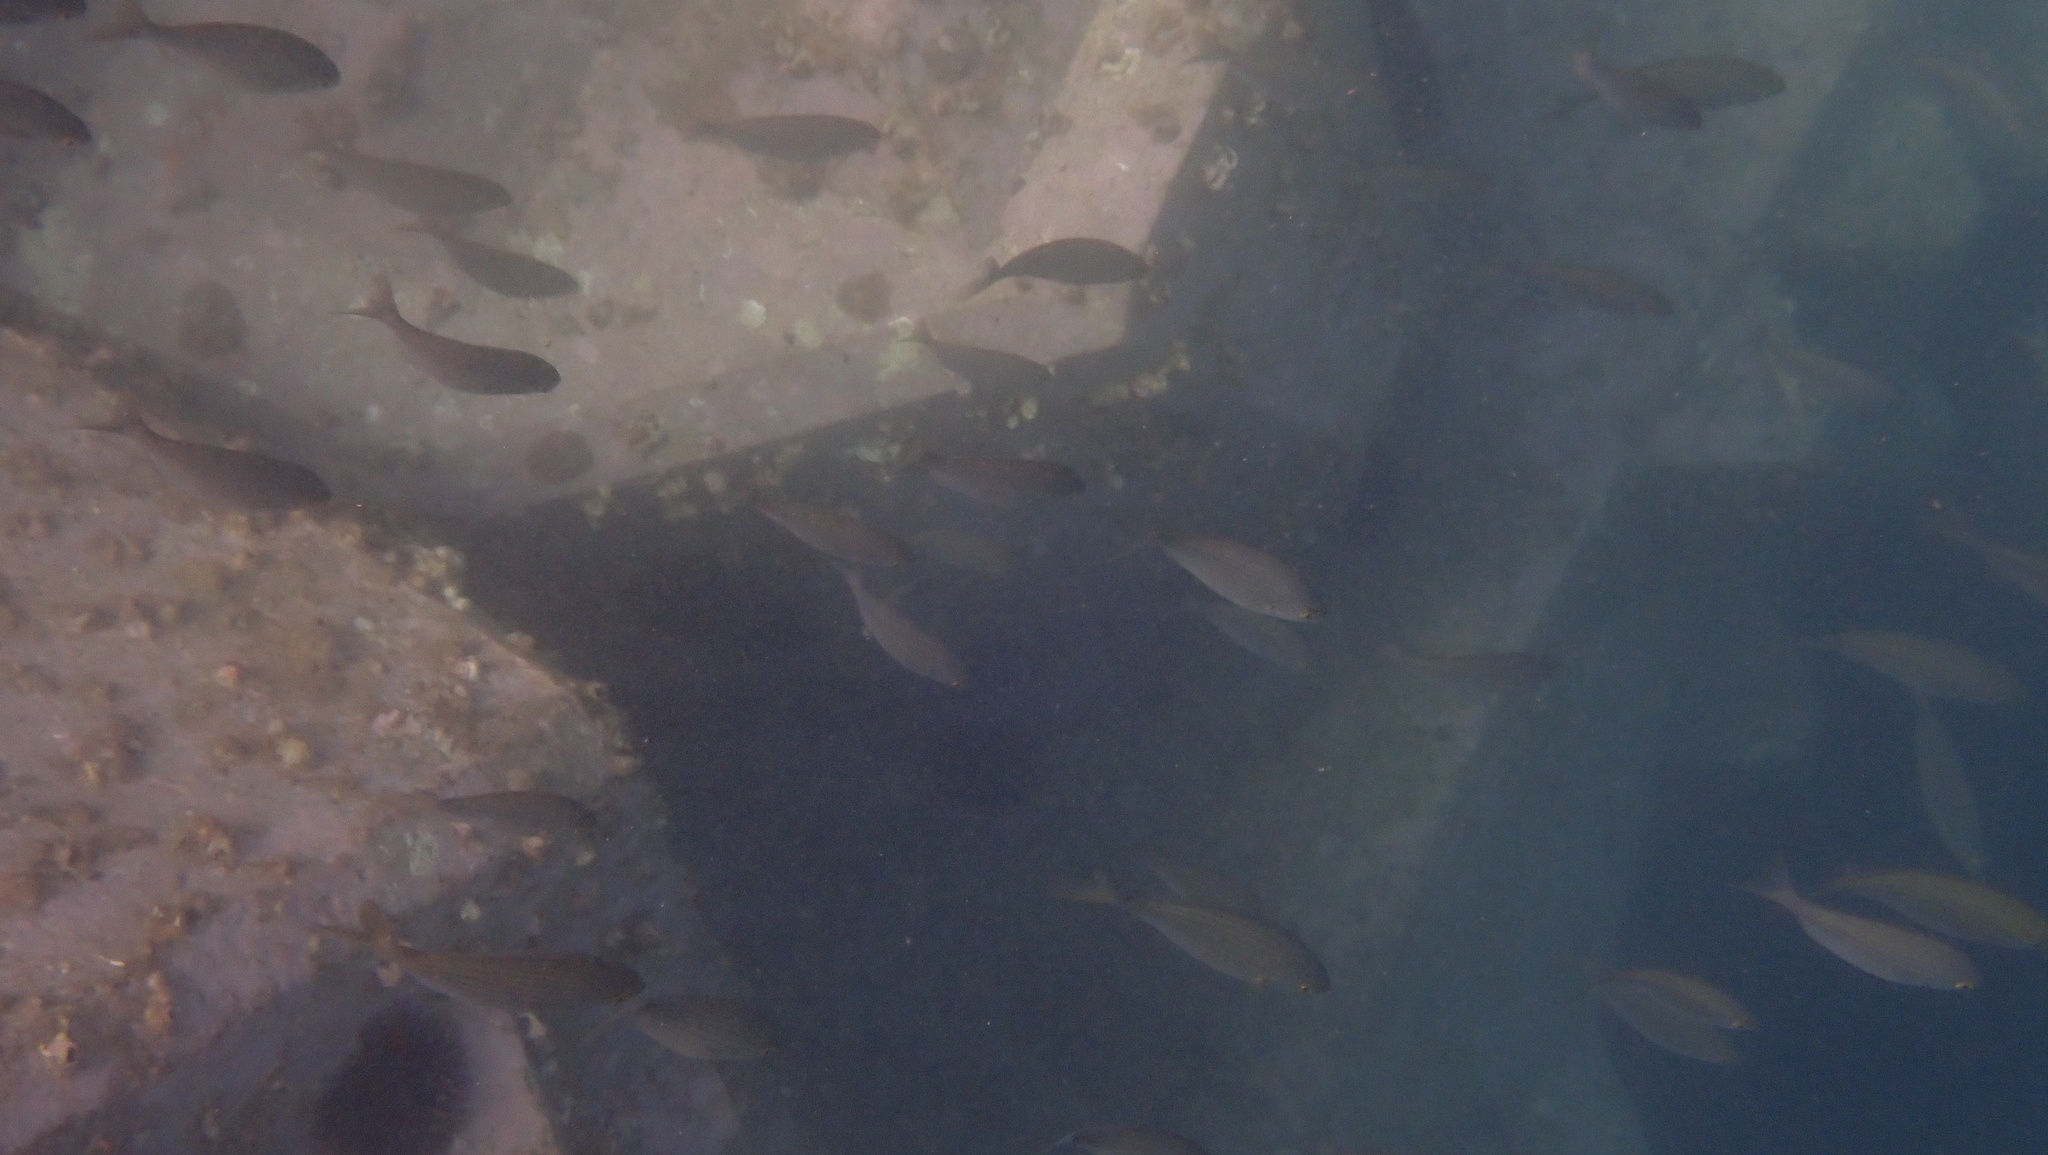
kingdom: Animalia
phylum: Chordata
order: Perciformes
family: Sparidae
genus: Sarpa
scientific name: Sarpa salpa
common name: Salema
